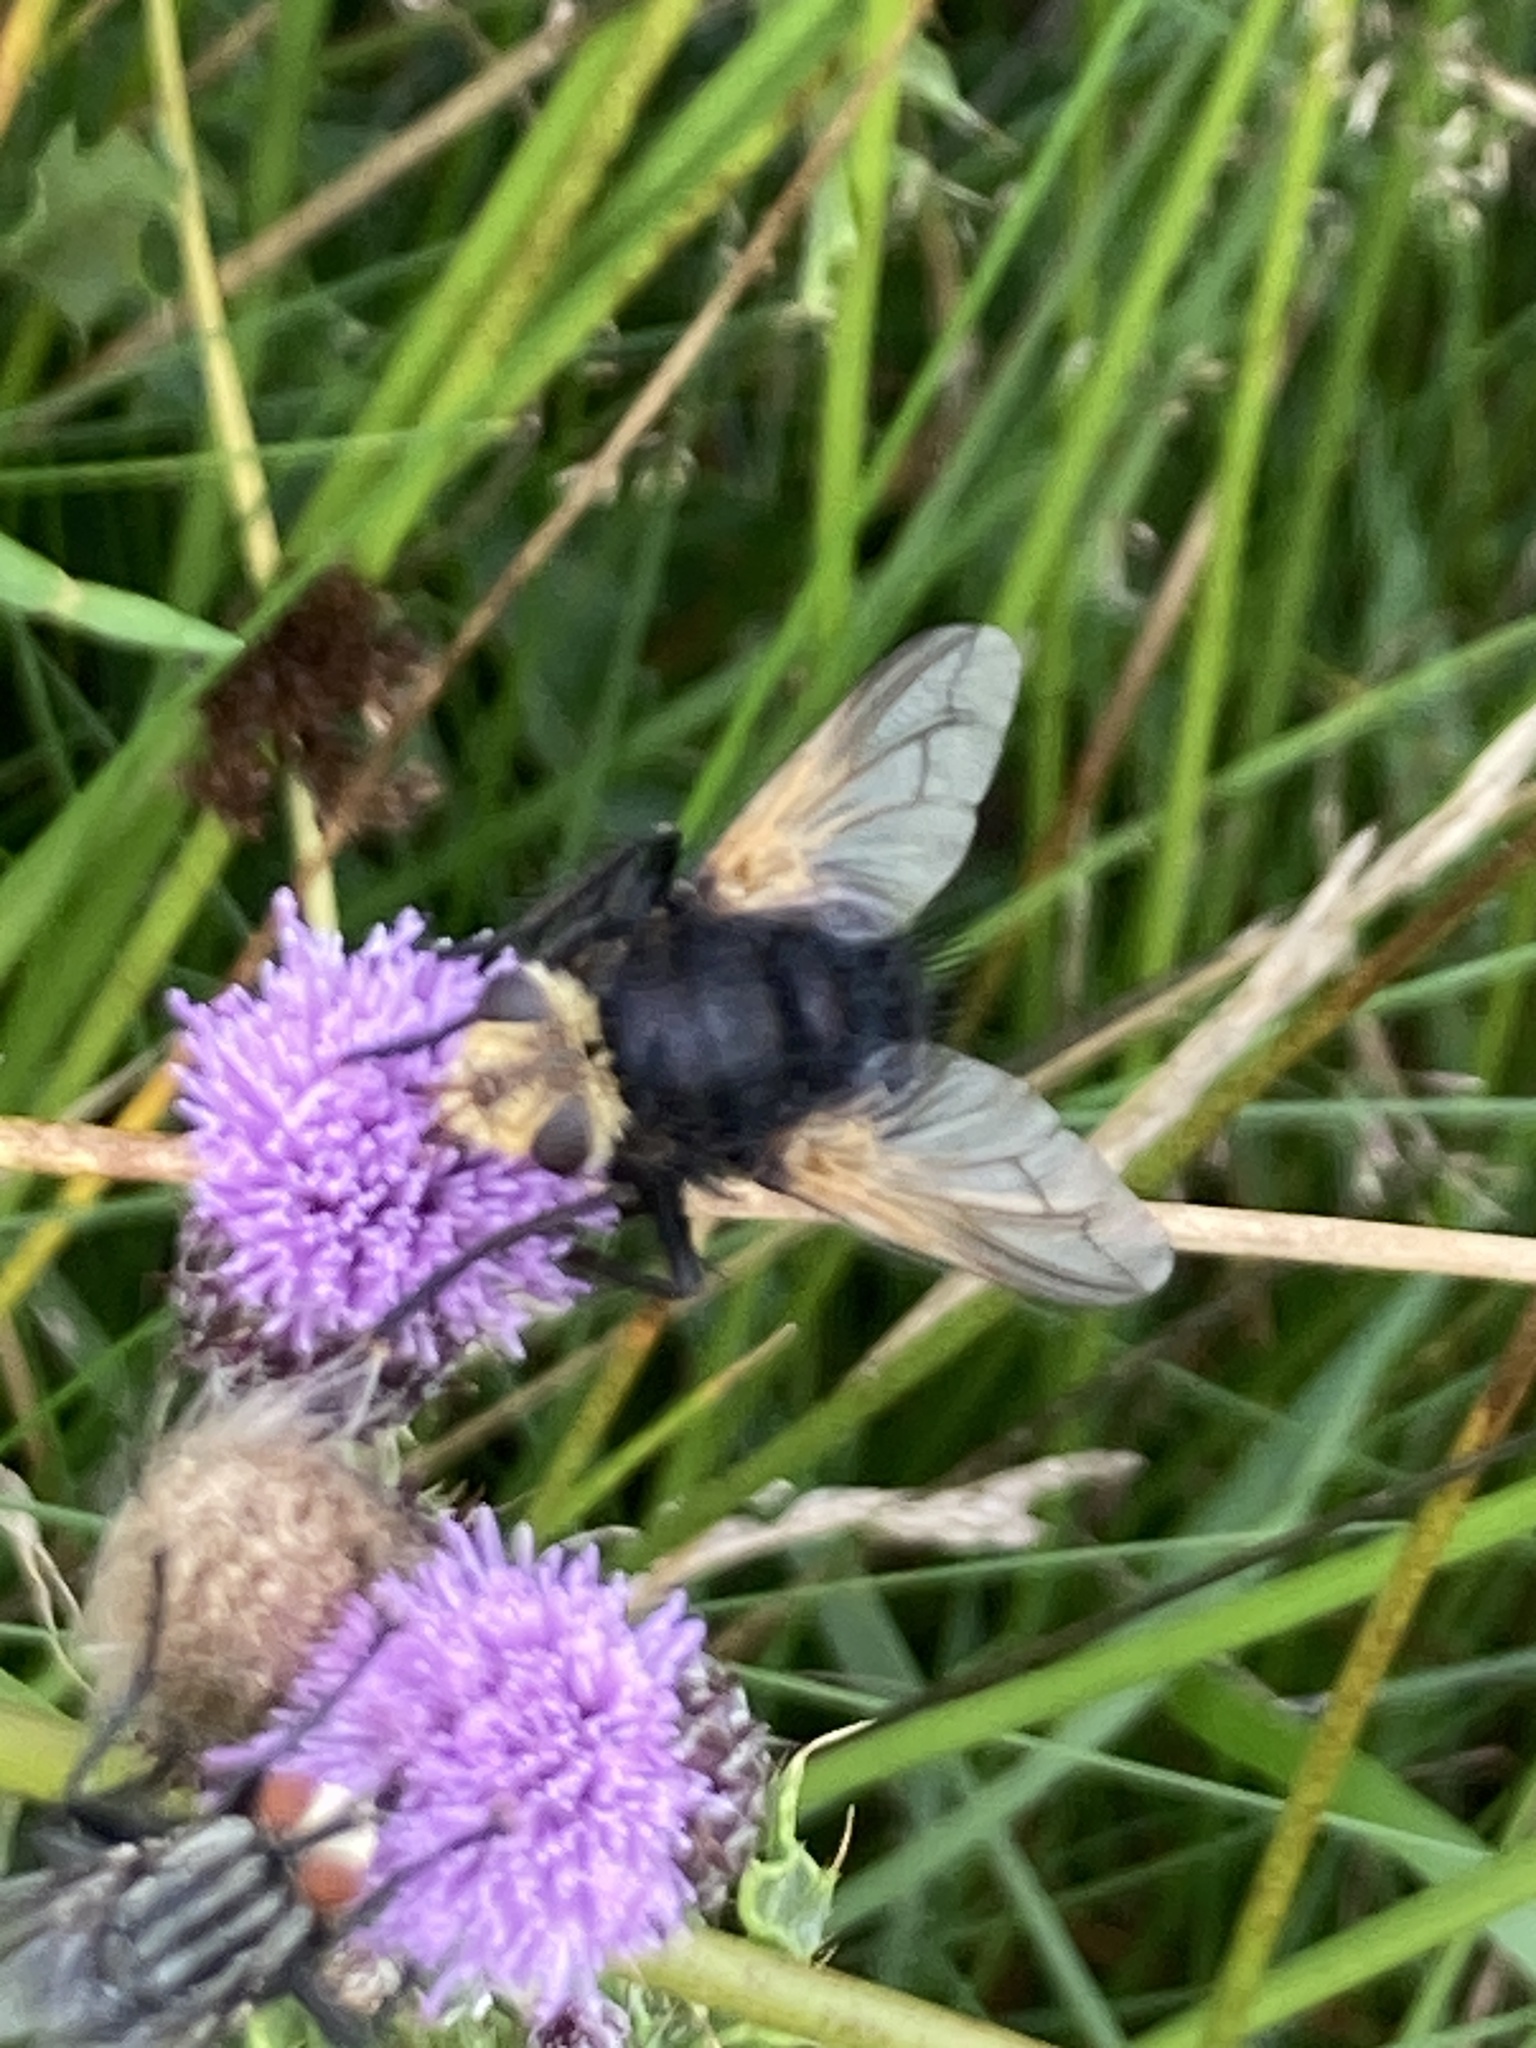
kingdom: Animalia
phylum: Arthropoda
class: Insecta
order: Diptera
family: Tachinidae
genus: Tachina
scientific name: Tachina grossa
